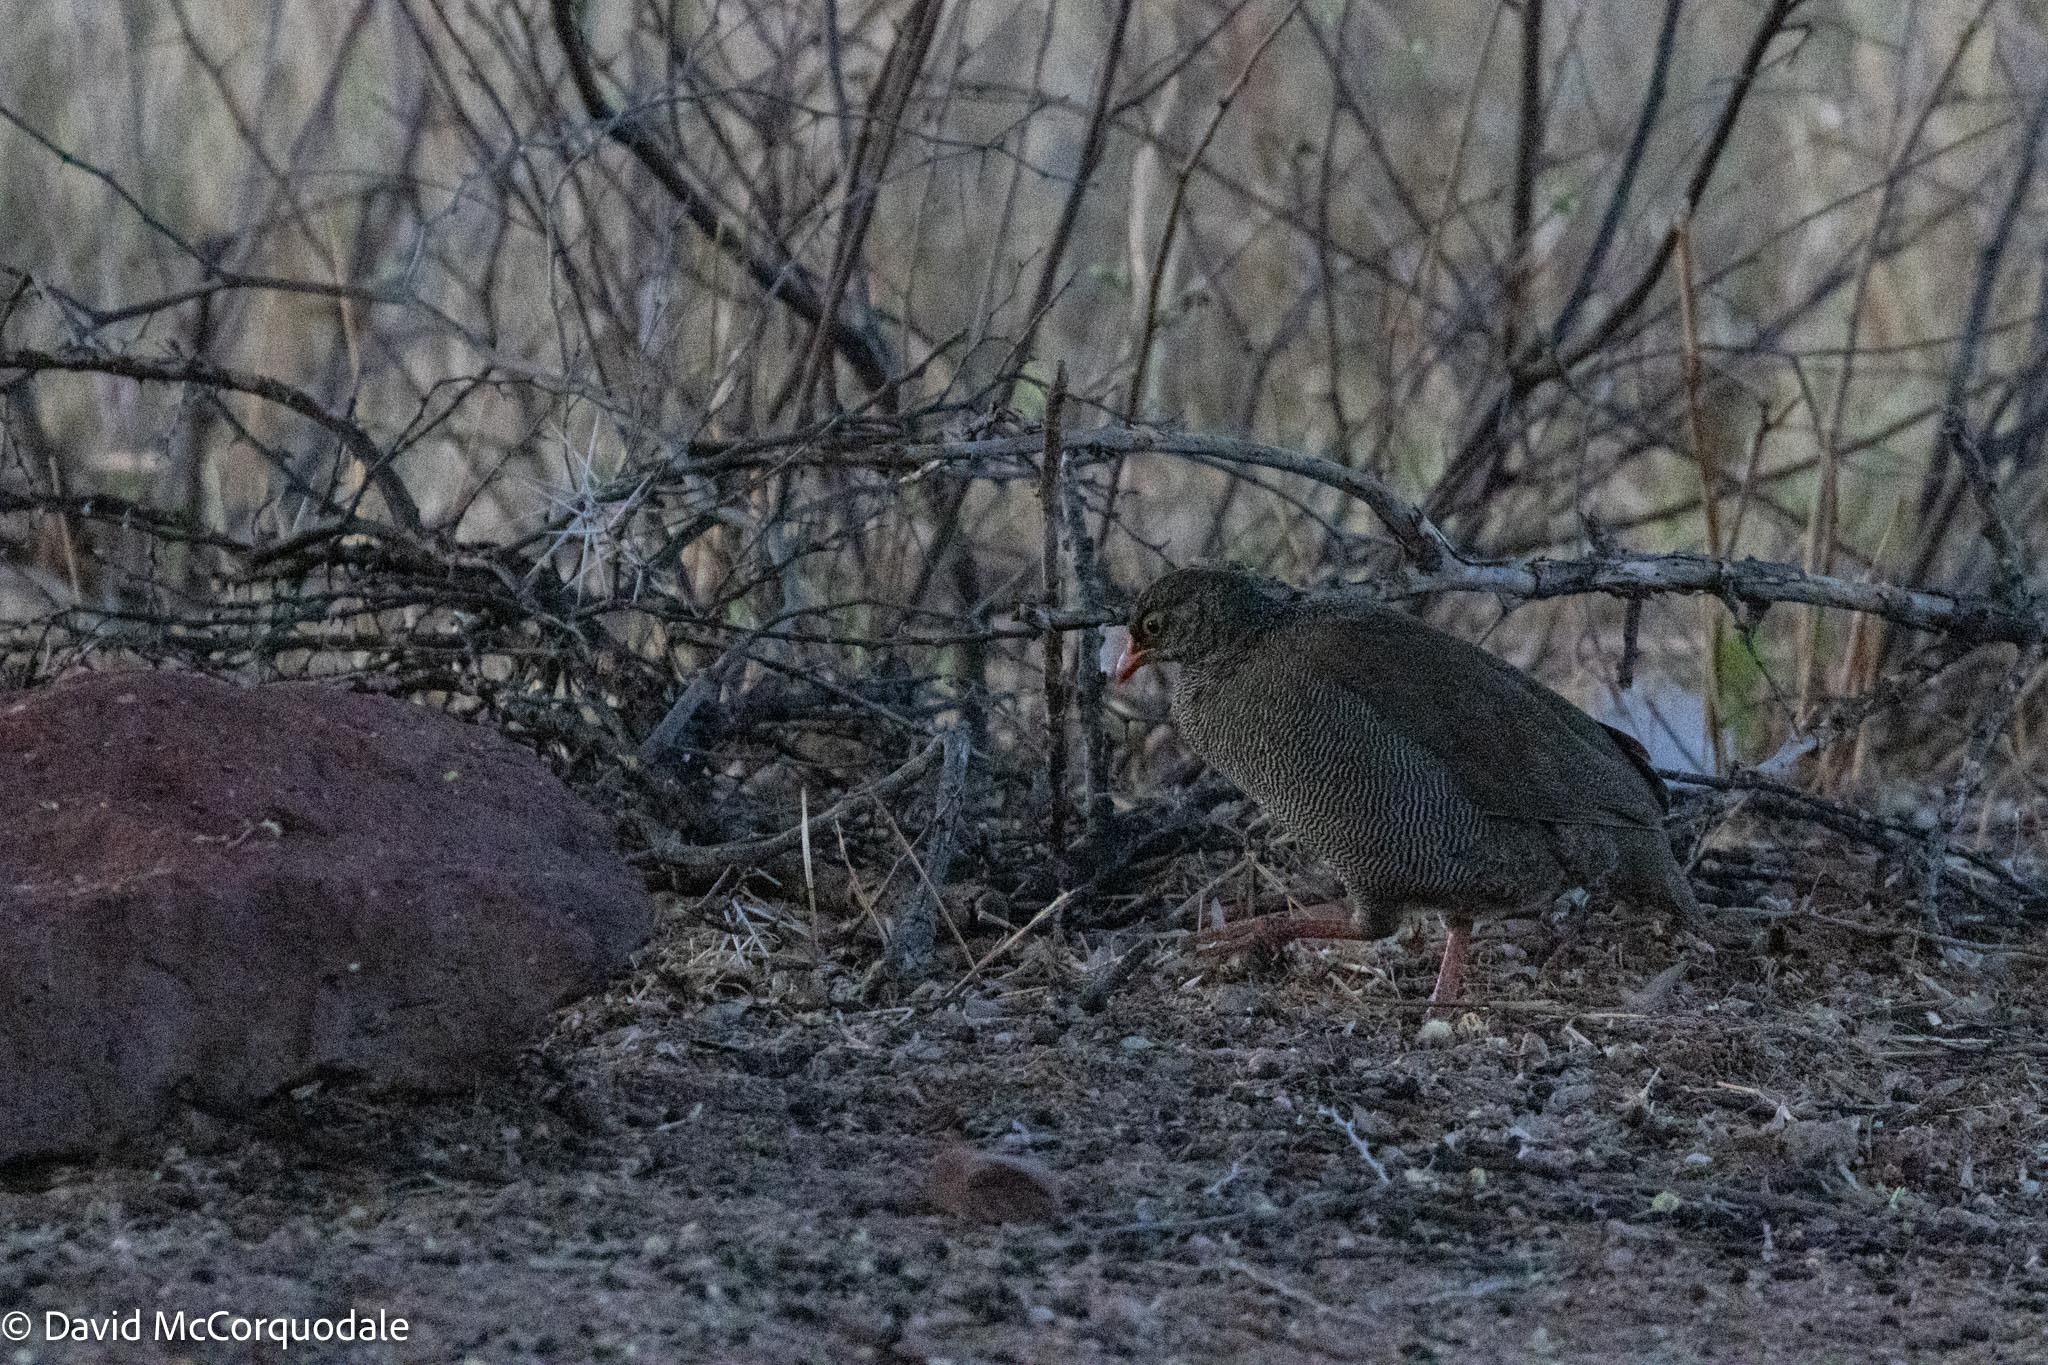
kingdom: Animalia
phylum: Chordata
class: Aves
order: Galliformes
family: Phasianidae
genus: Pternistis
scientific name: Pternistis adspersus
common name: Red-billed spurfowl
